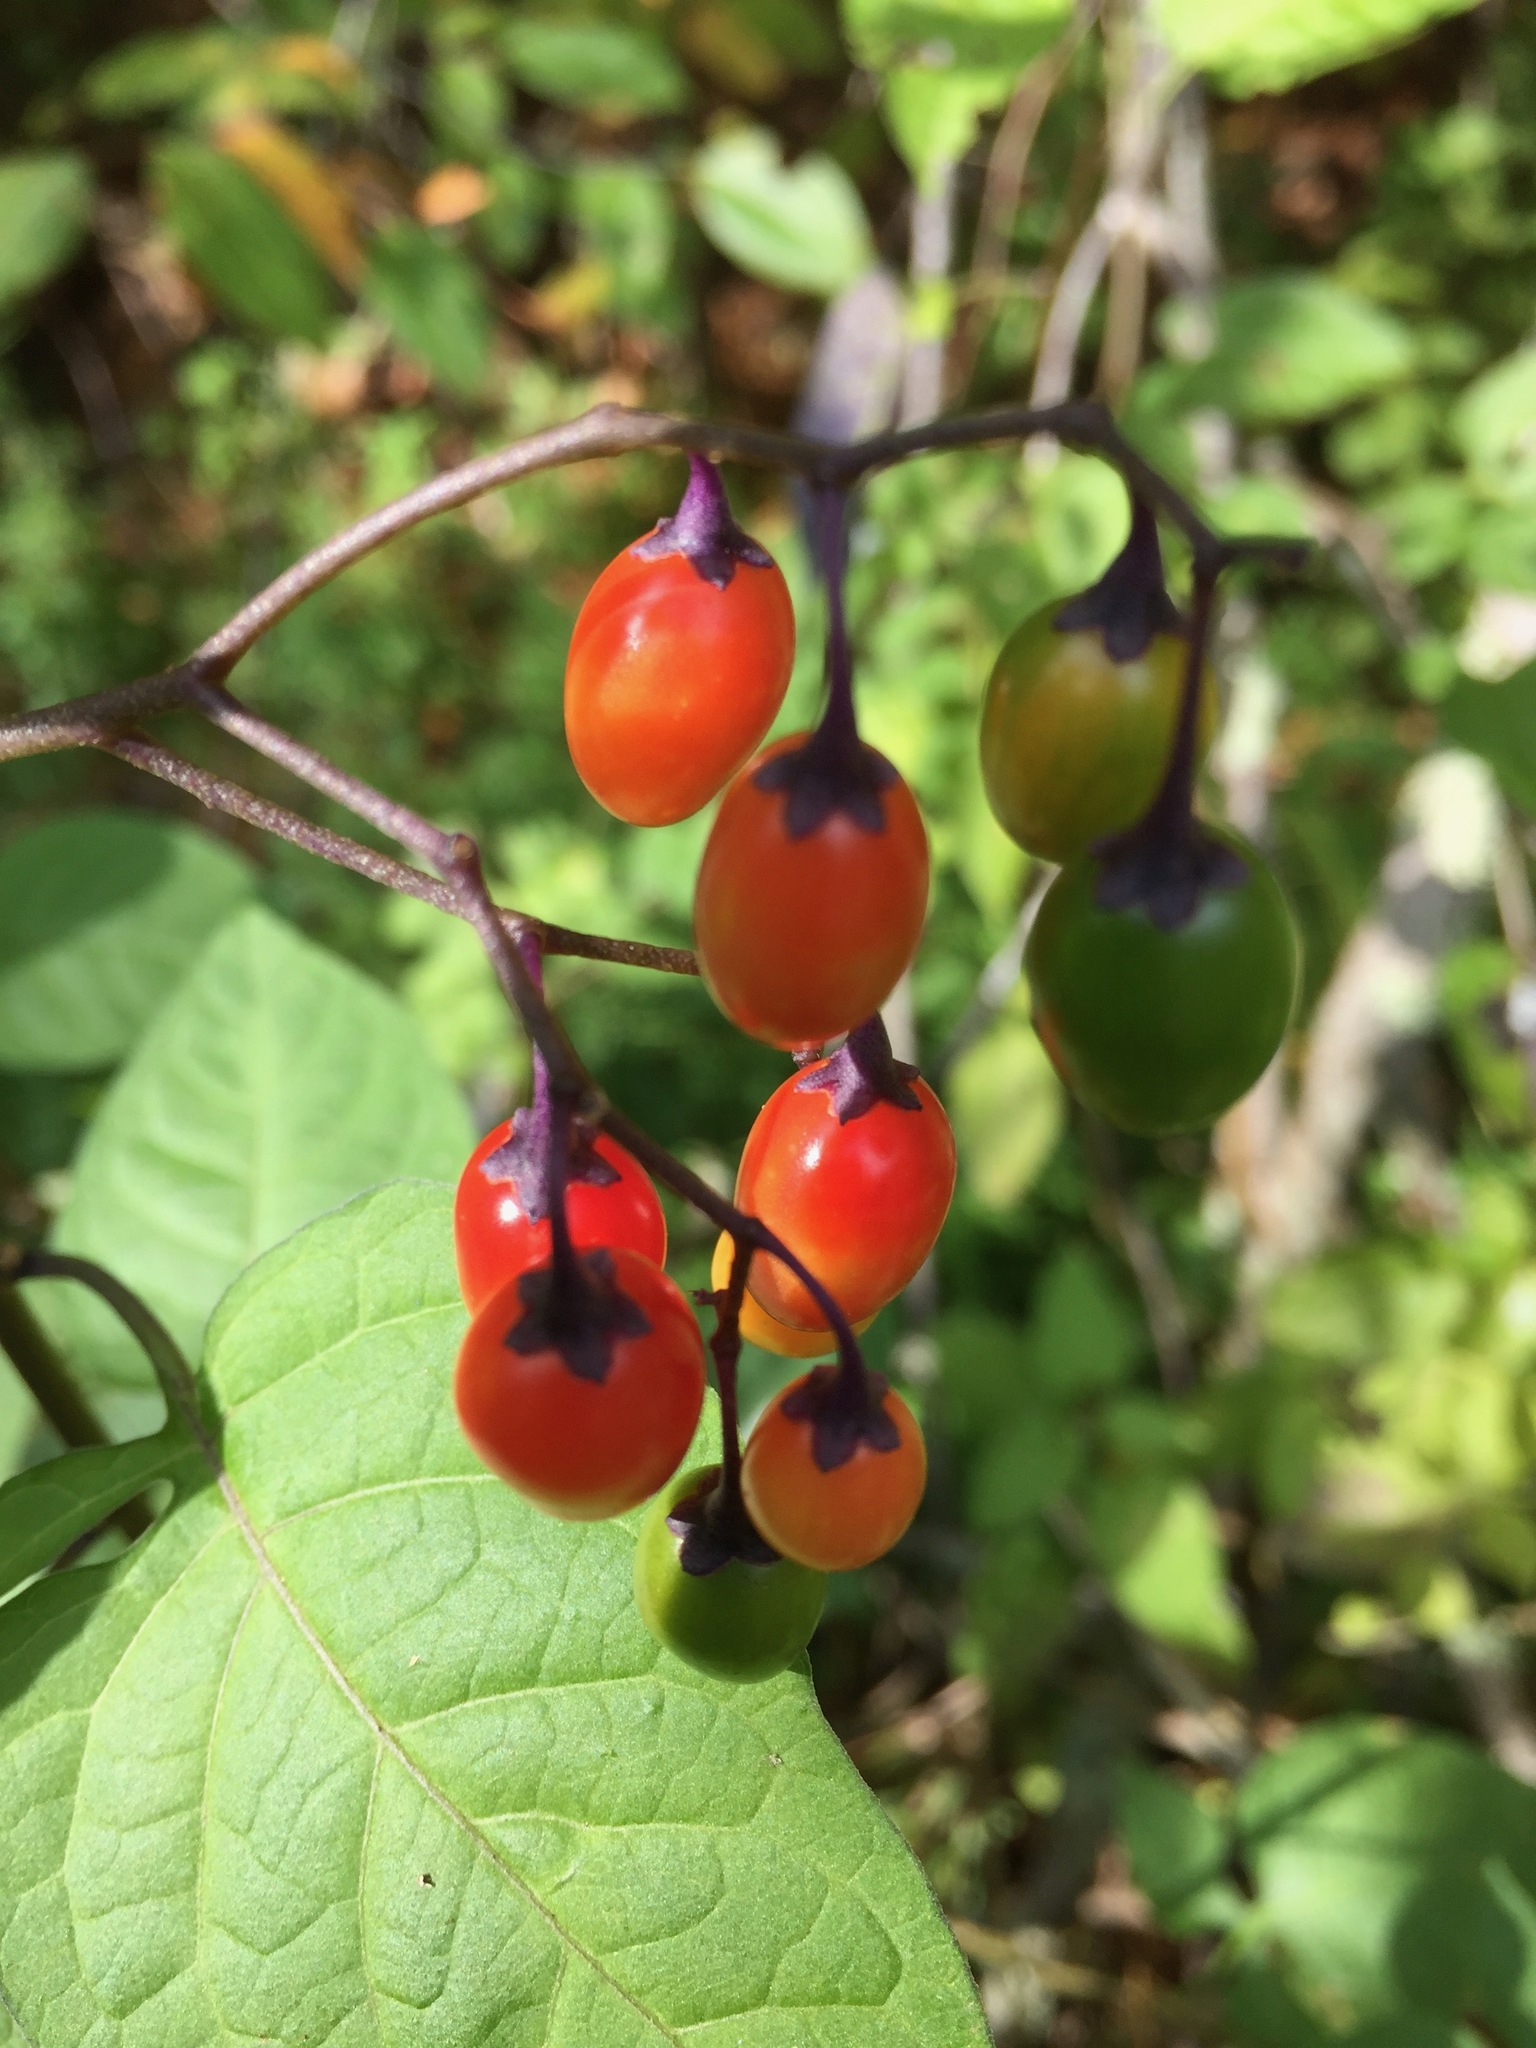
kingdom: Plantae
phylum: Tracheophyta
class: Magnoliopsida
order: Solanales
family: Solanaceae
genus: Solanum
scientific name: Solanum dulcamara
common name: Climbing nightshade
